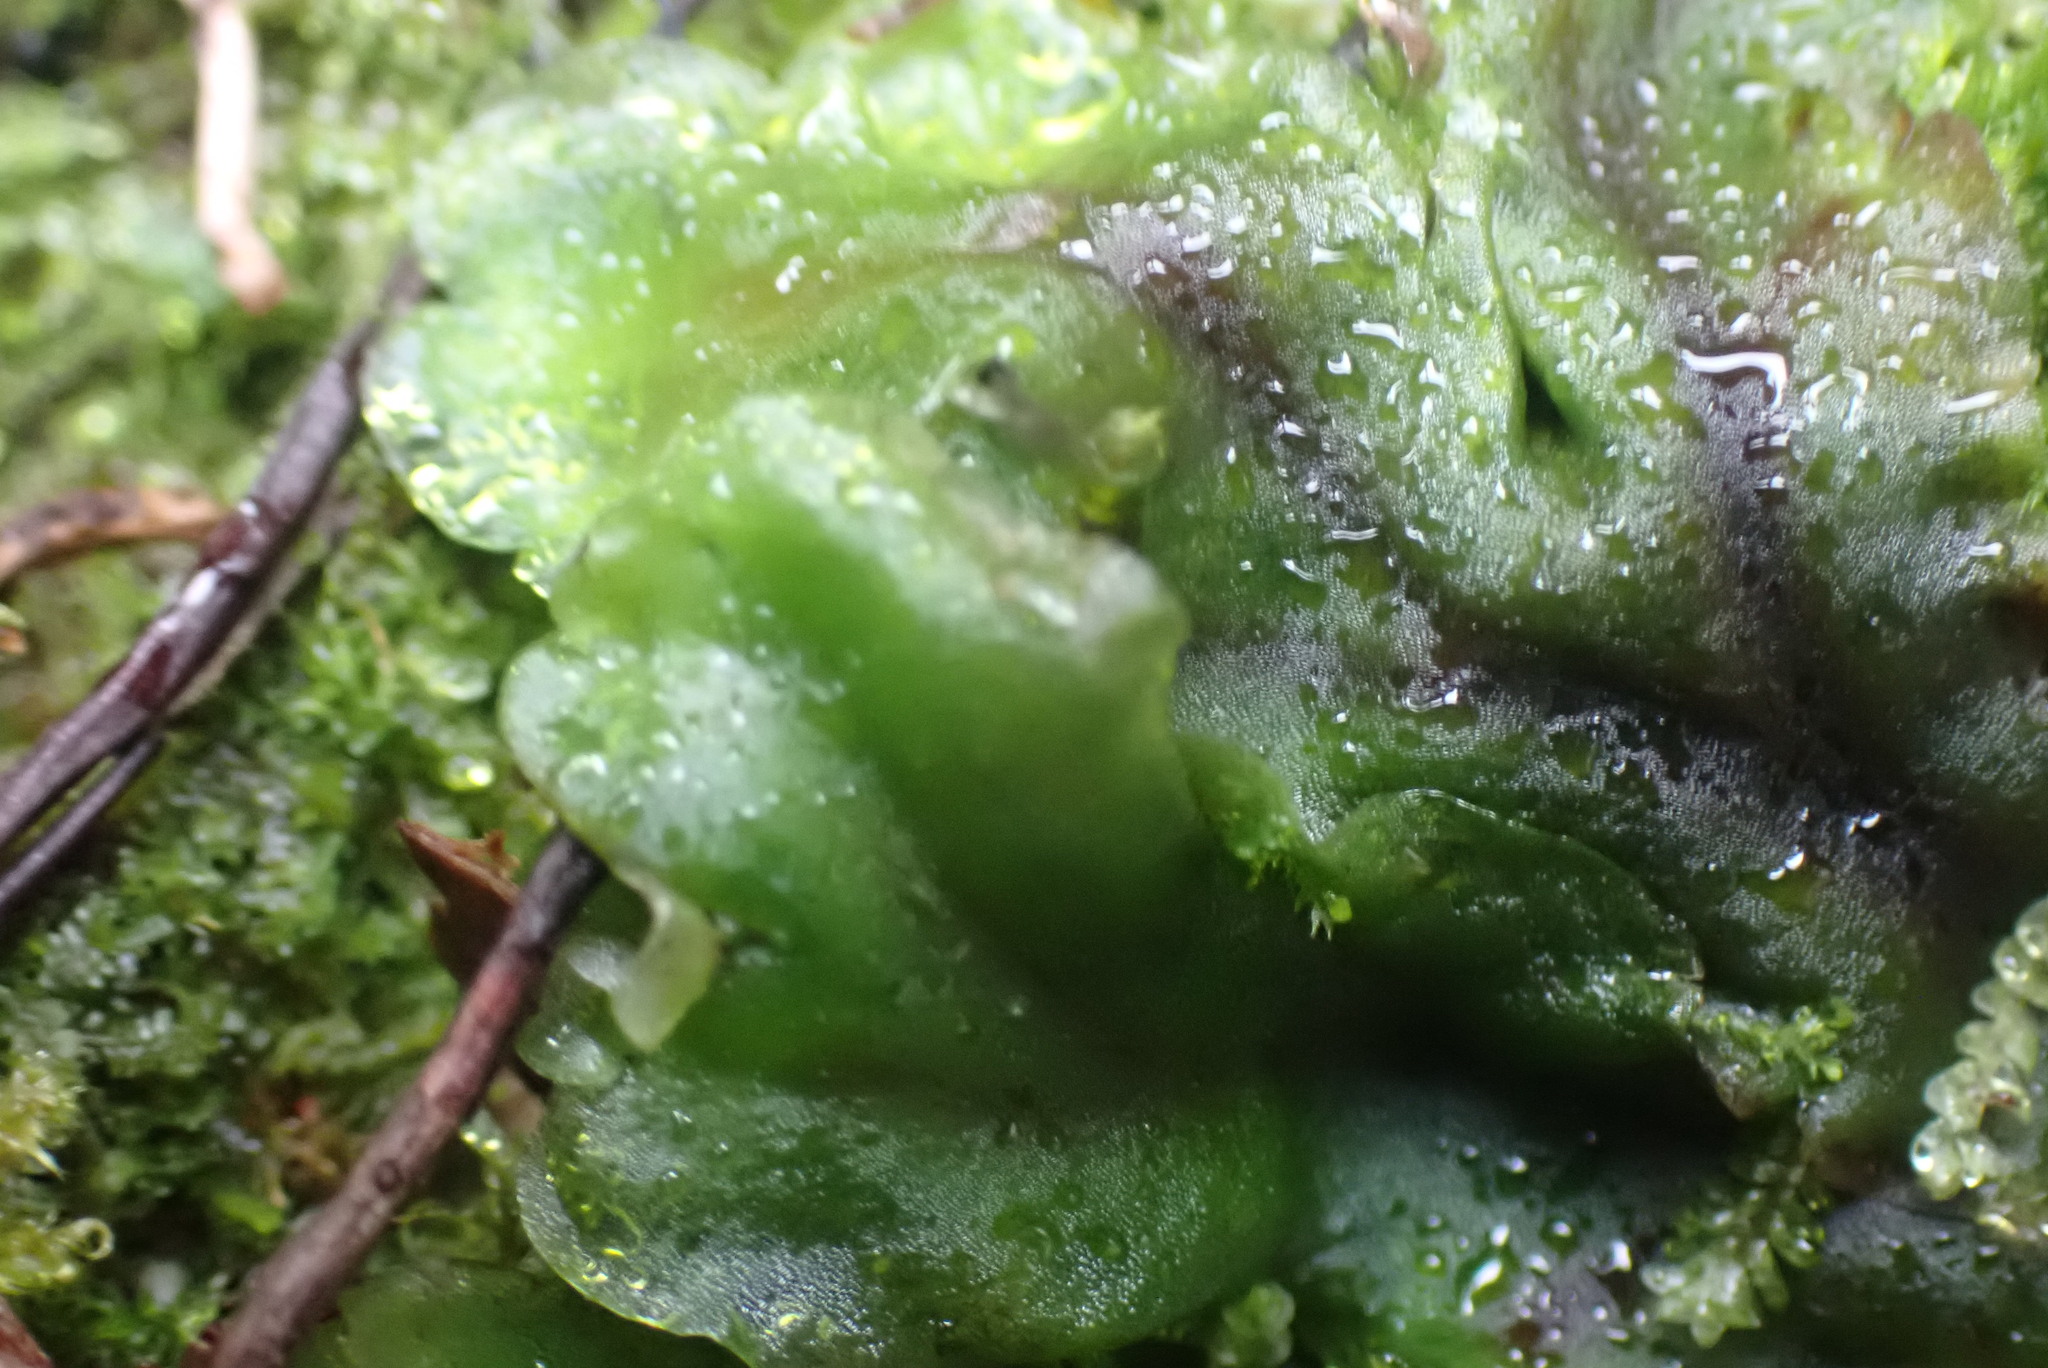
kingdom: Plantae
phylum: Marchantiophyta
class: Jungermanniopsida
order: Pelliales
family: Pelliaceae
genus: Pellia
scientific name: Pellia neesiana
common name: Nees  pellia
